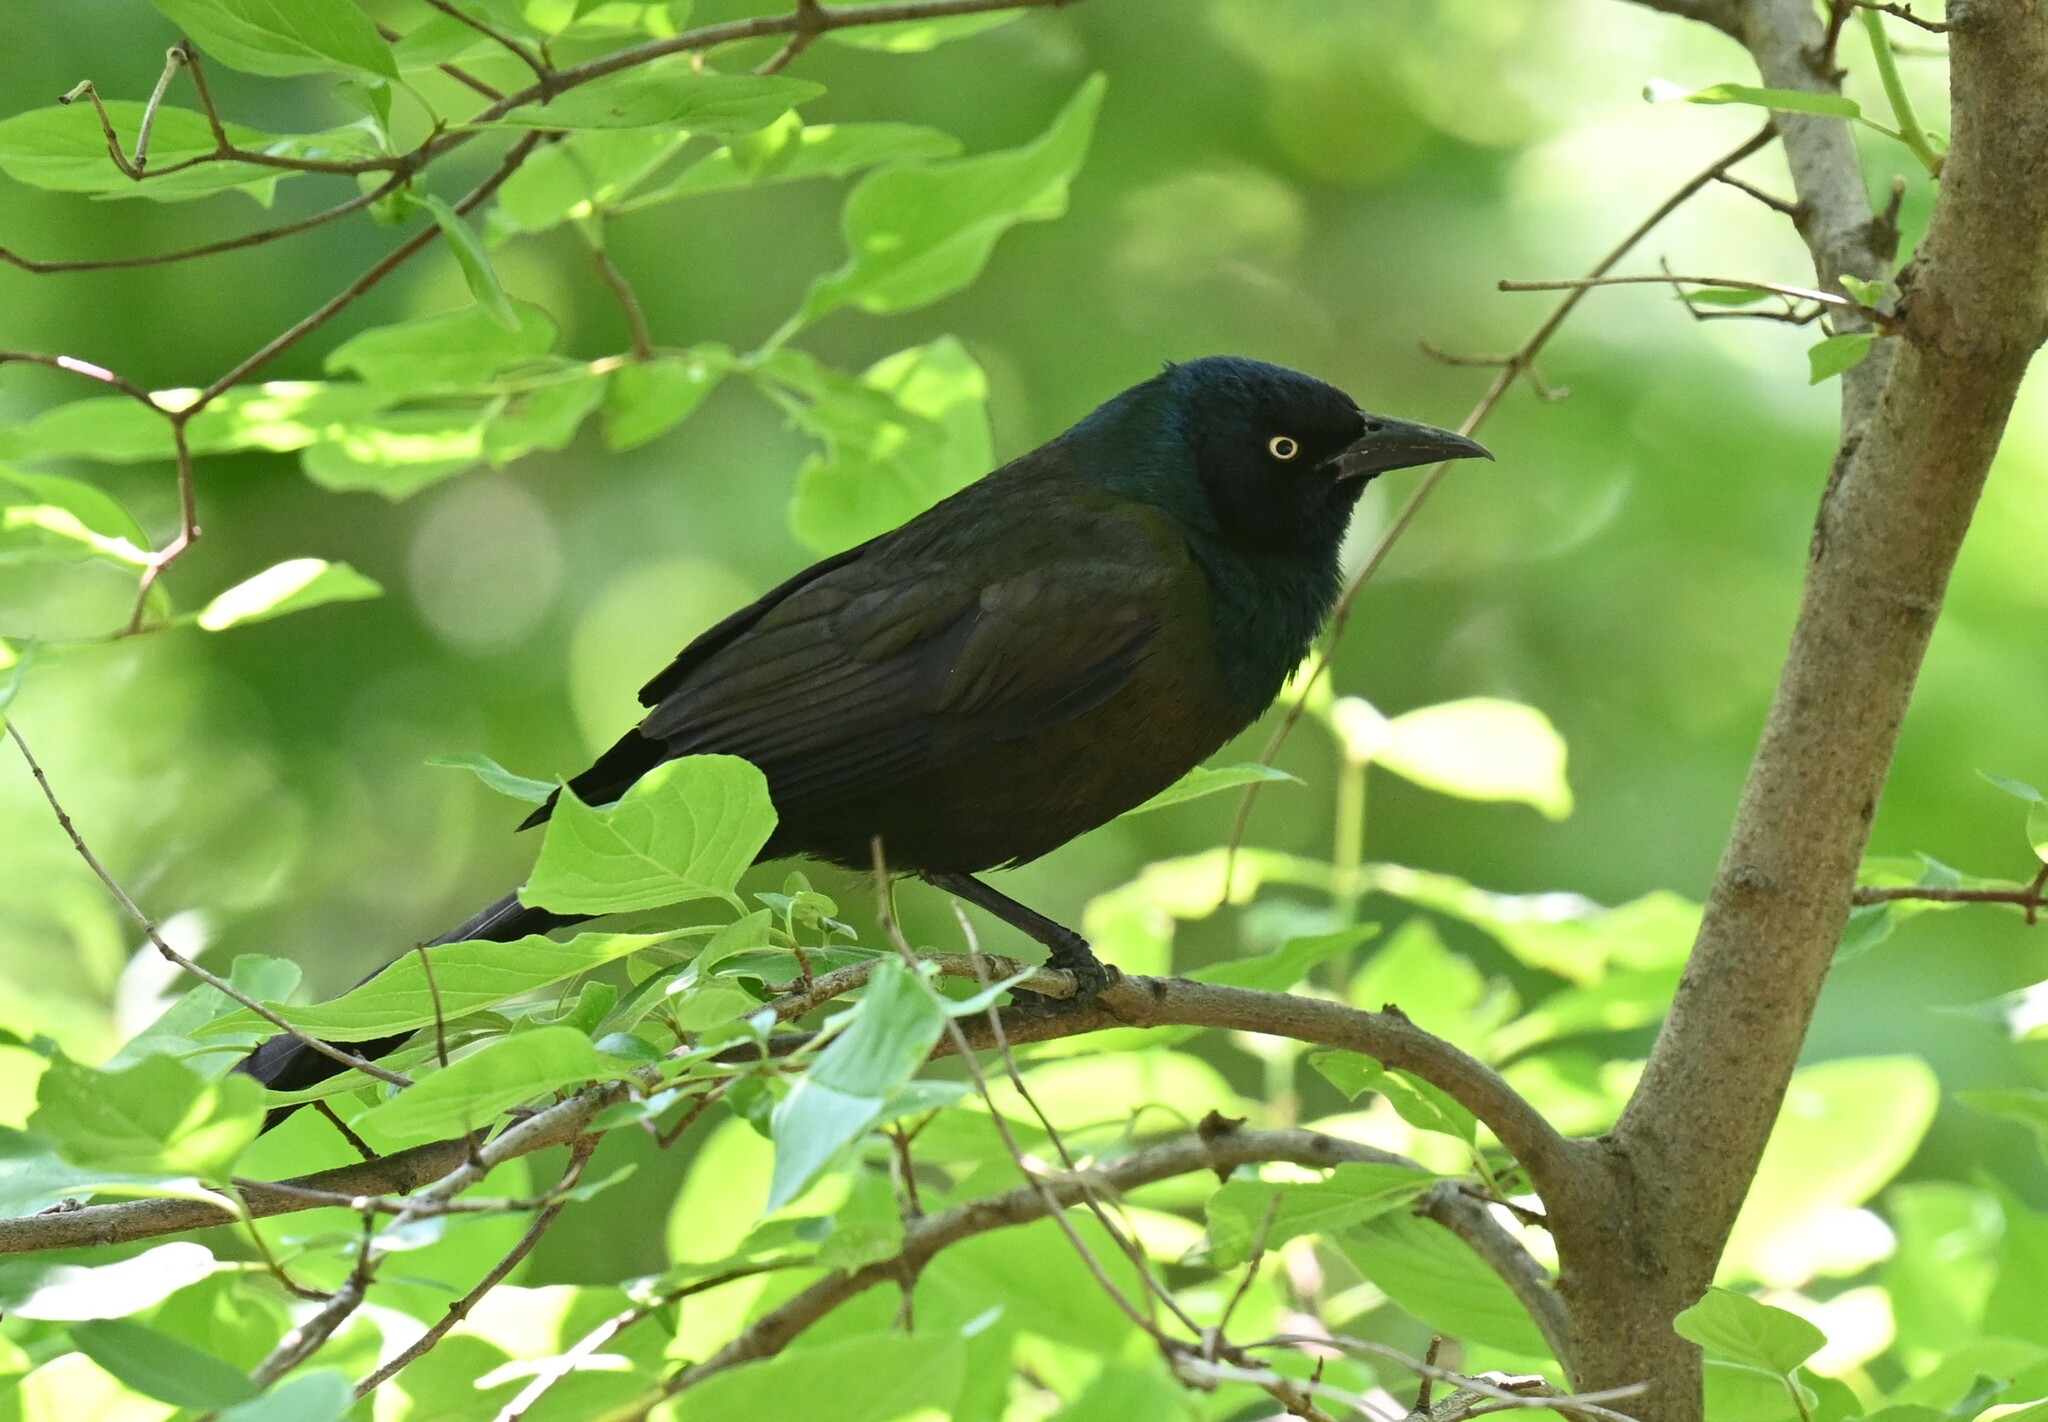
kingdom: Animalia
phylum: Chordata
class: Aves
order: Passeriformes
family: Icteridae
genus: Quiscalus
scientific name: Quiscalus quiscula
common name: Common grackle
